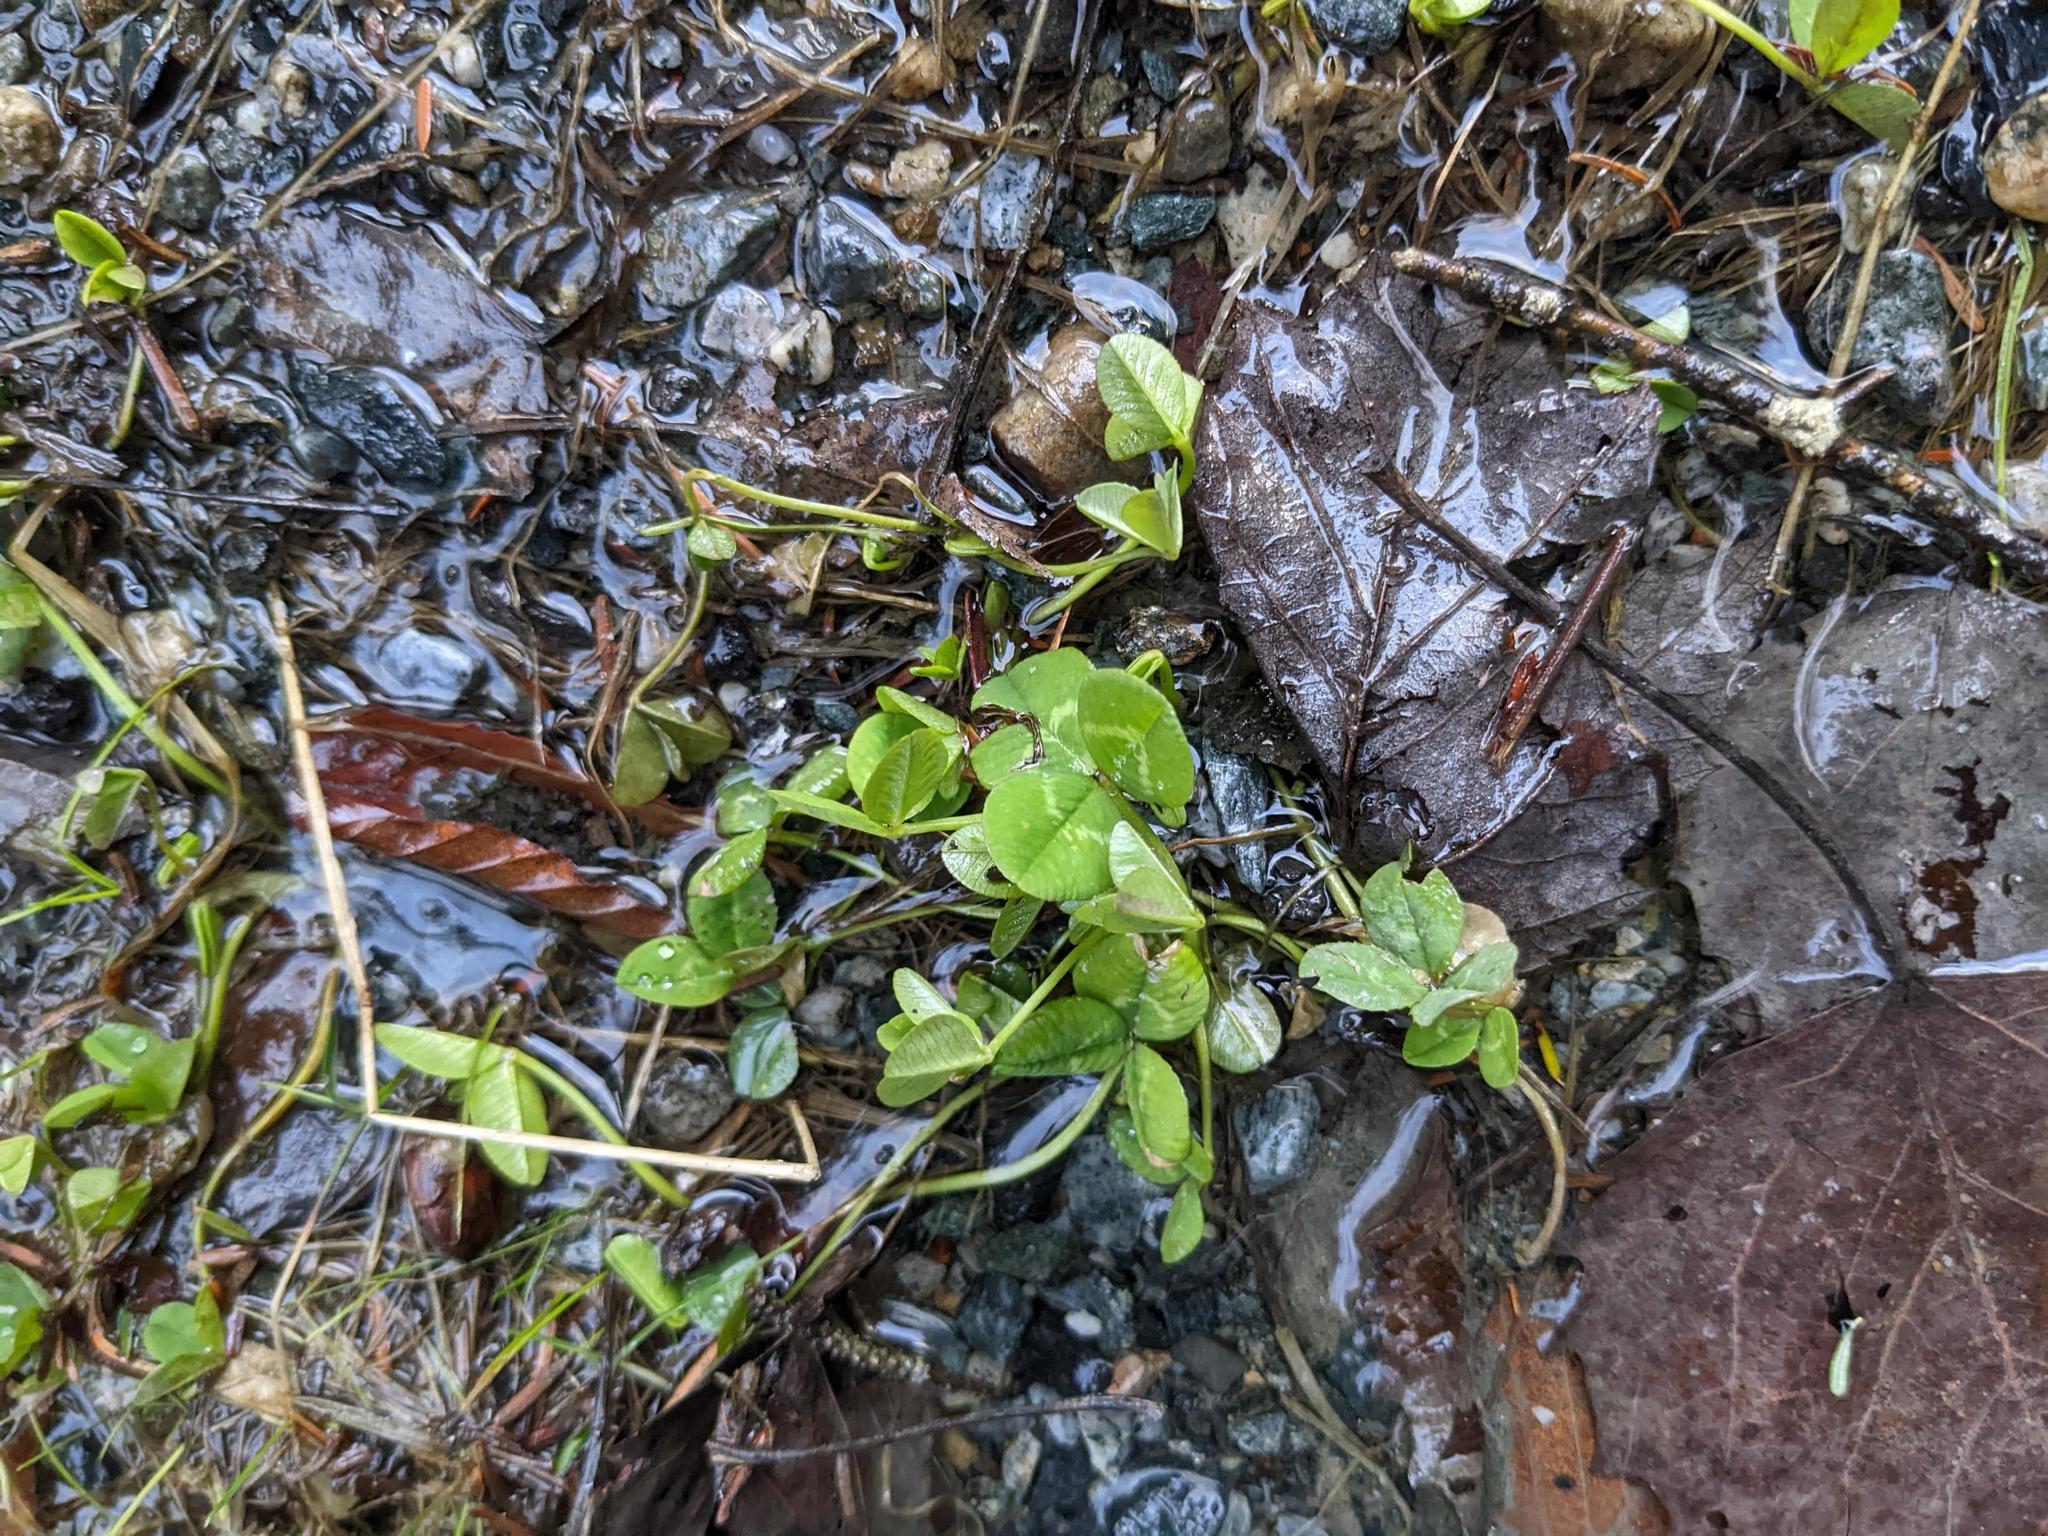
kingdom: Plantae
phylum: Tracheophyta
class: Magnoliopsida
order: Fabales
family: Fabaceae
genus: Trifolium
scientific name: Trifolium repens
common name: White clover
